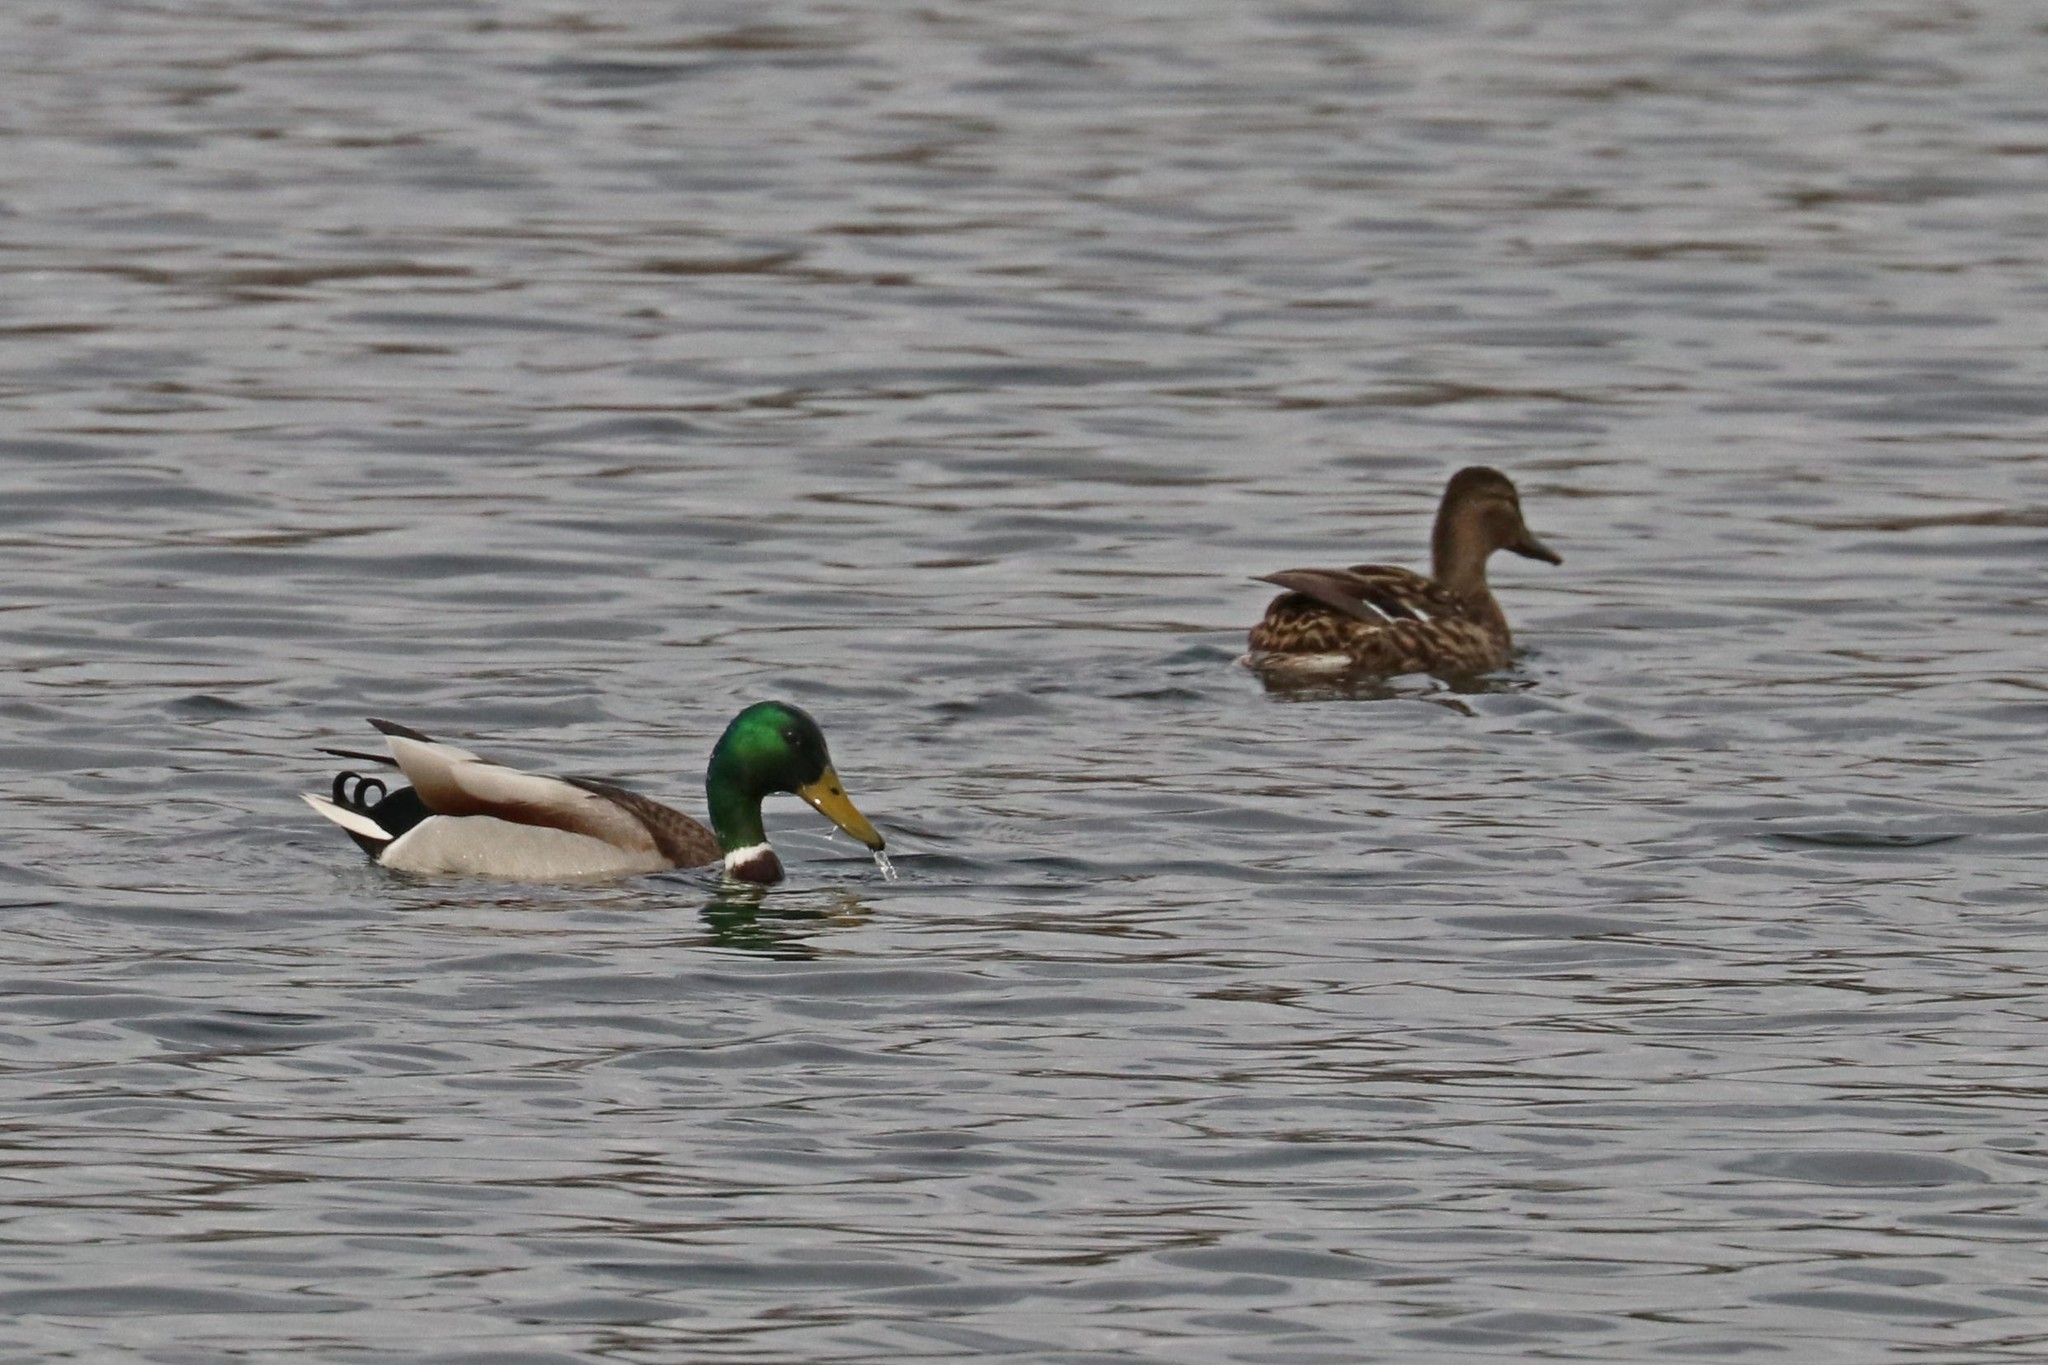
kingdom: Animalia
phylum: Chordata
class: Aves
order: Anseriformes
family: Anatidae
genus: Anas
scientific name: Anas platyrhynchos
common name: Mallard
